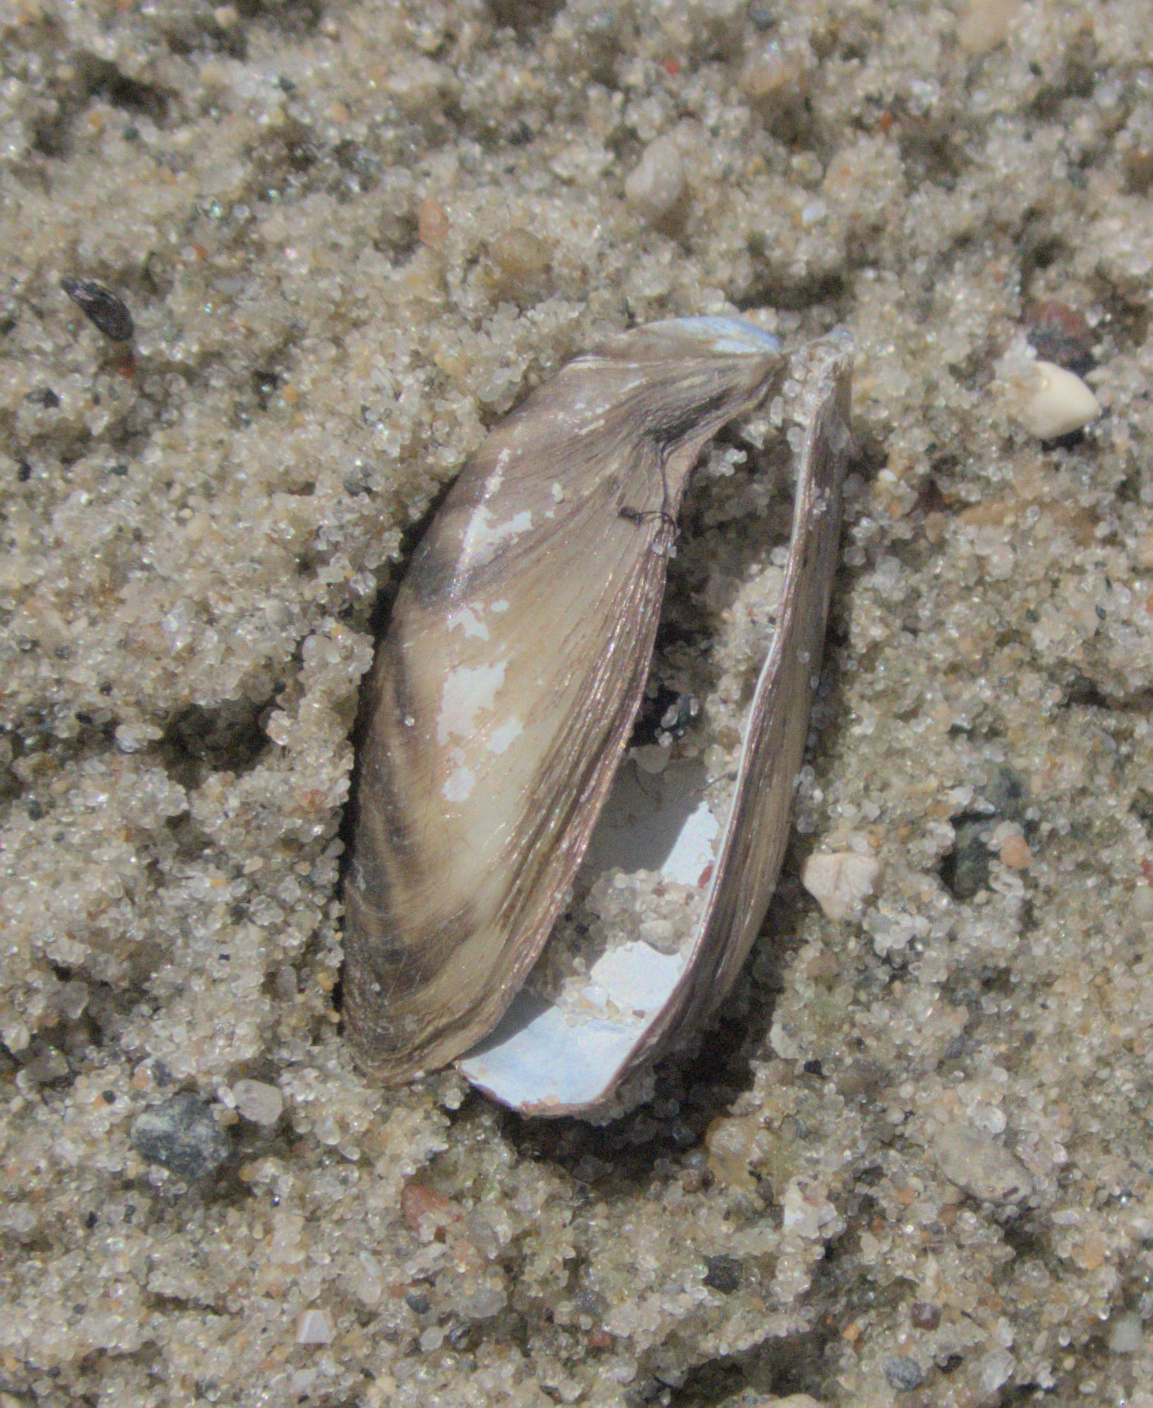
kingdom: Animalia
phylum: Mollusca
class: Bivalvia
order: Myida
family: Dreissenidae
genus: Dreissena
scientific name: Dreissena polymorpha
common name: Zebra mussel
